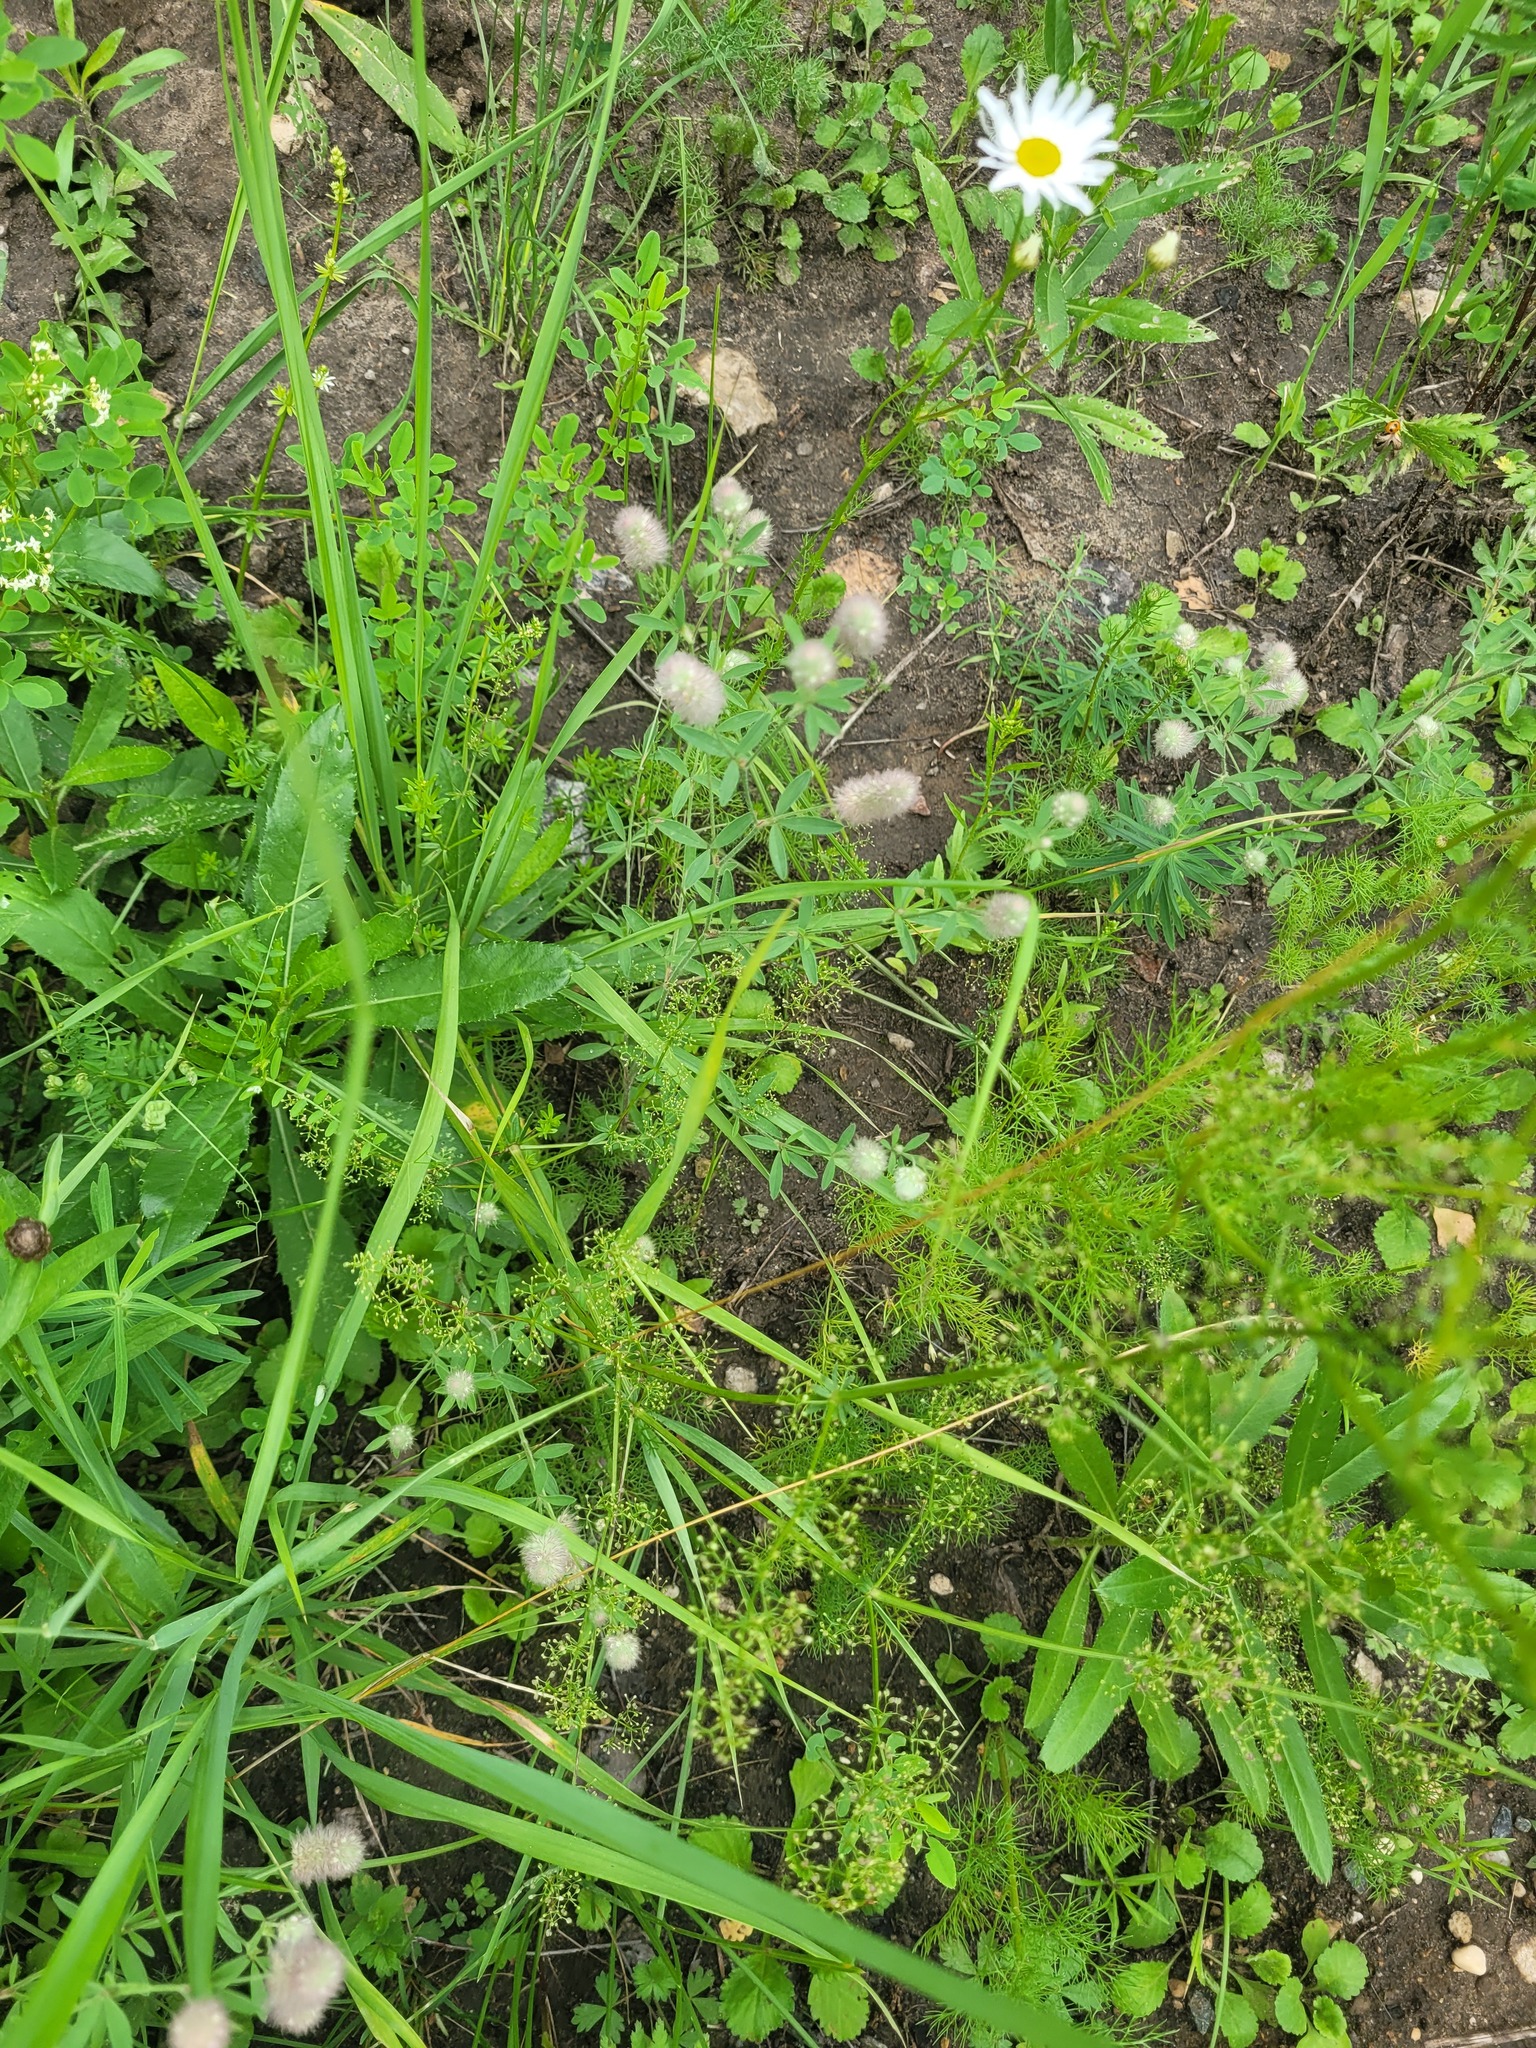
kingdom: Plantae
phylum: Tracheophyta
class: Magnoliopsida
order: Gentianales
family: Rubiaceae
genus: Galium
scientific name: Galium mollugo
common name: Hedge bedstraw
